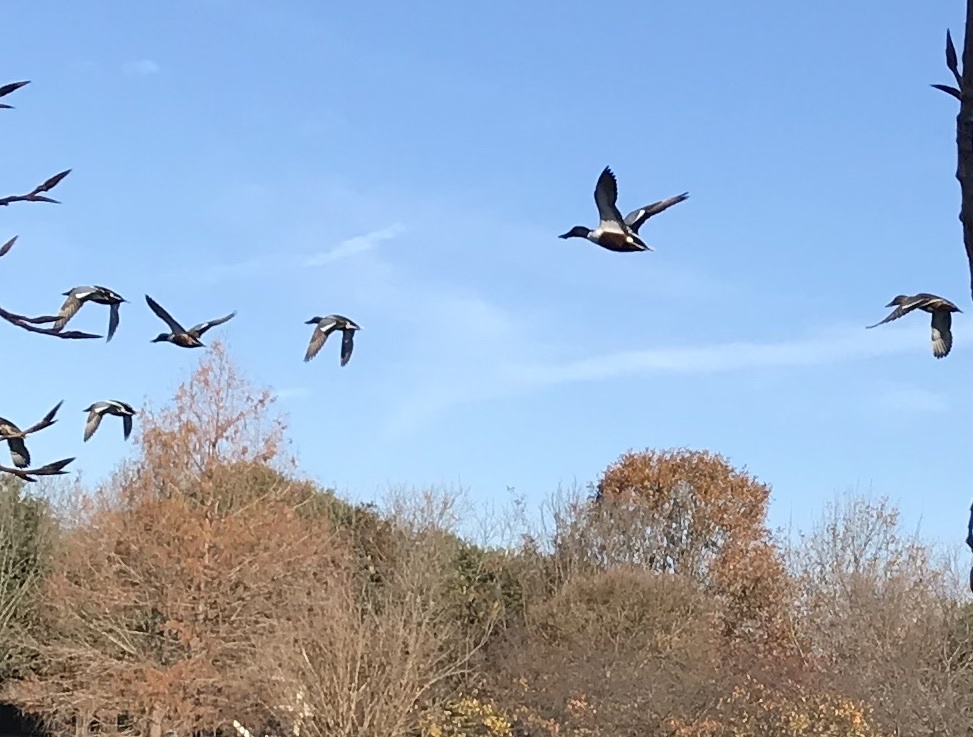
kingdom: Animalia
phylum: Chordata
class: Aves
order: Anseriformes
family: Anatidae
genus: Spatula
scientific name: Spatula clypeata
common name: Northern shoveler
